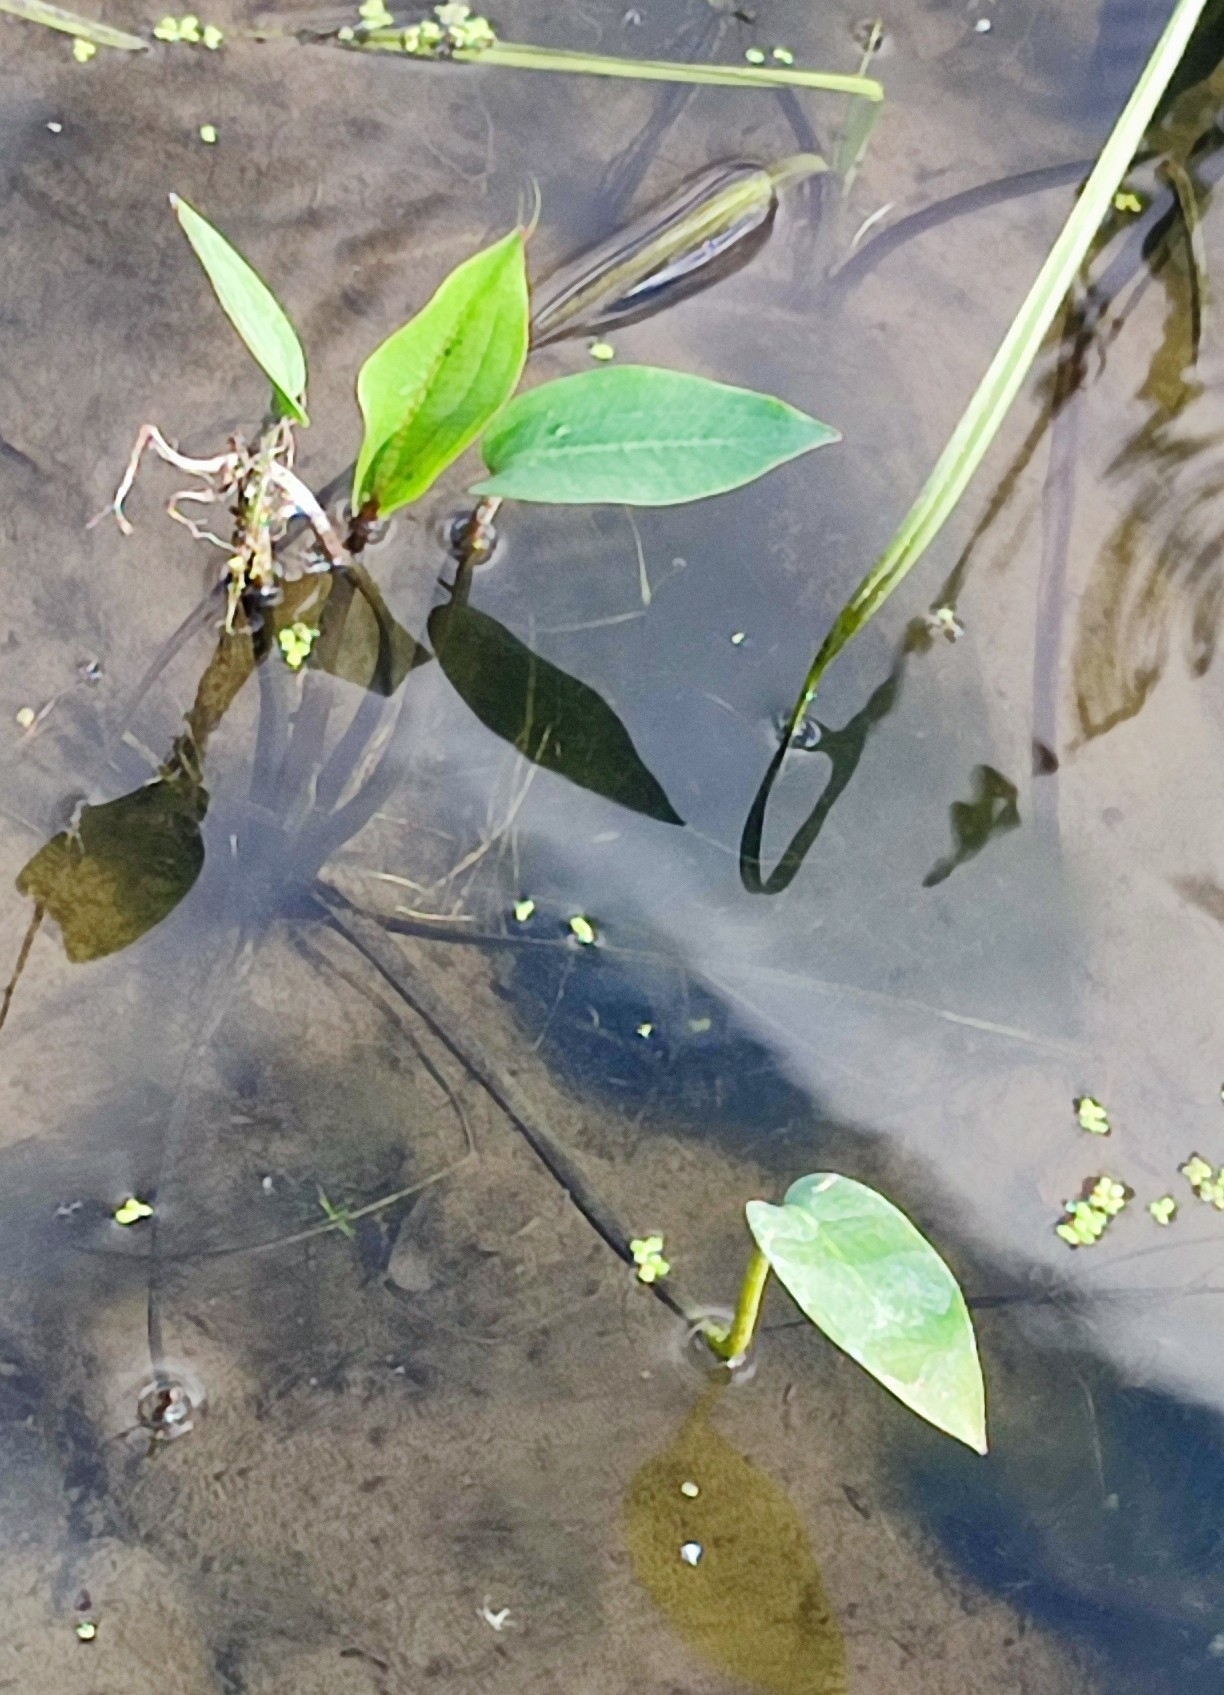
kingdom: Plantae
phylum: Tracheophyta
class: Liliopsida
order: Alismatales
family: Alismataceae
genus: Alisma
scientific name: Alisma plantago-aquatica
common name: Water-plantain
